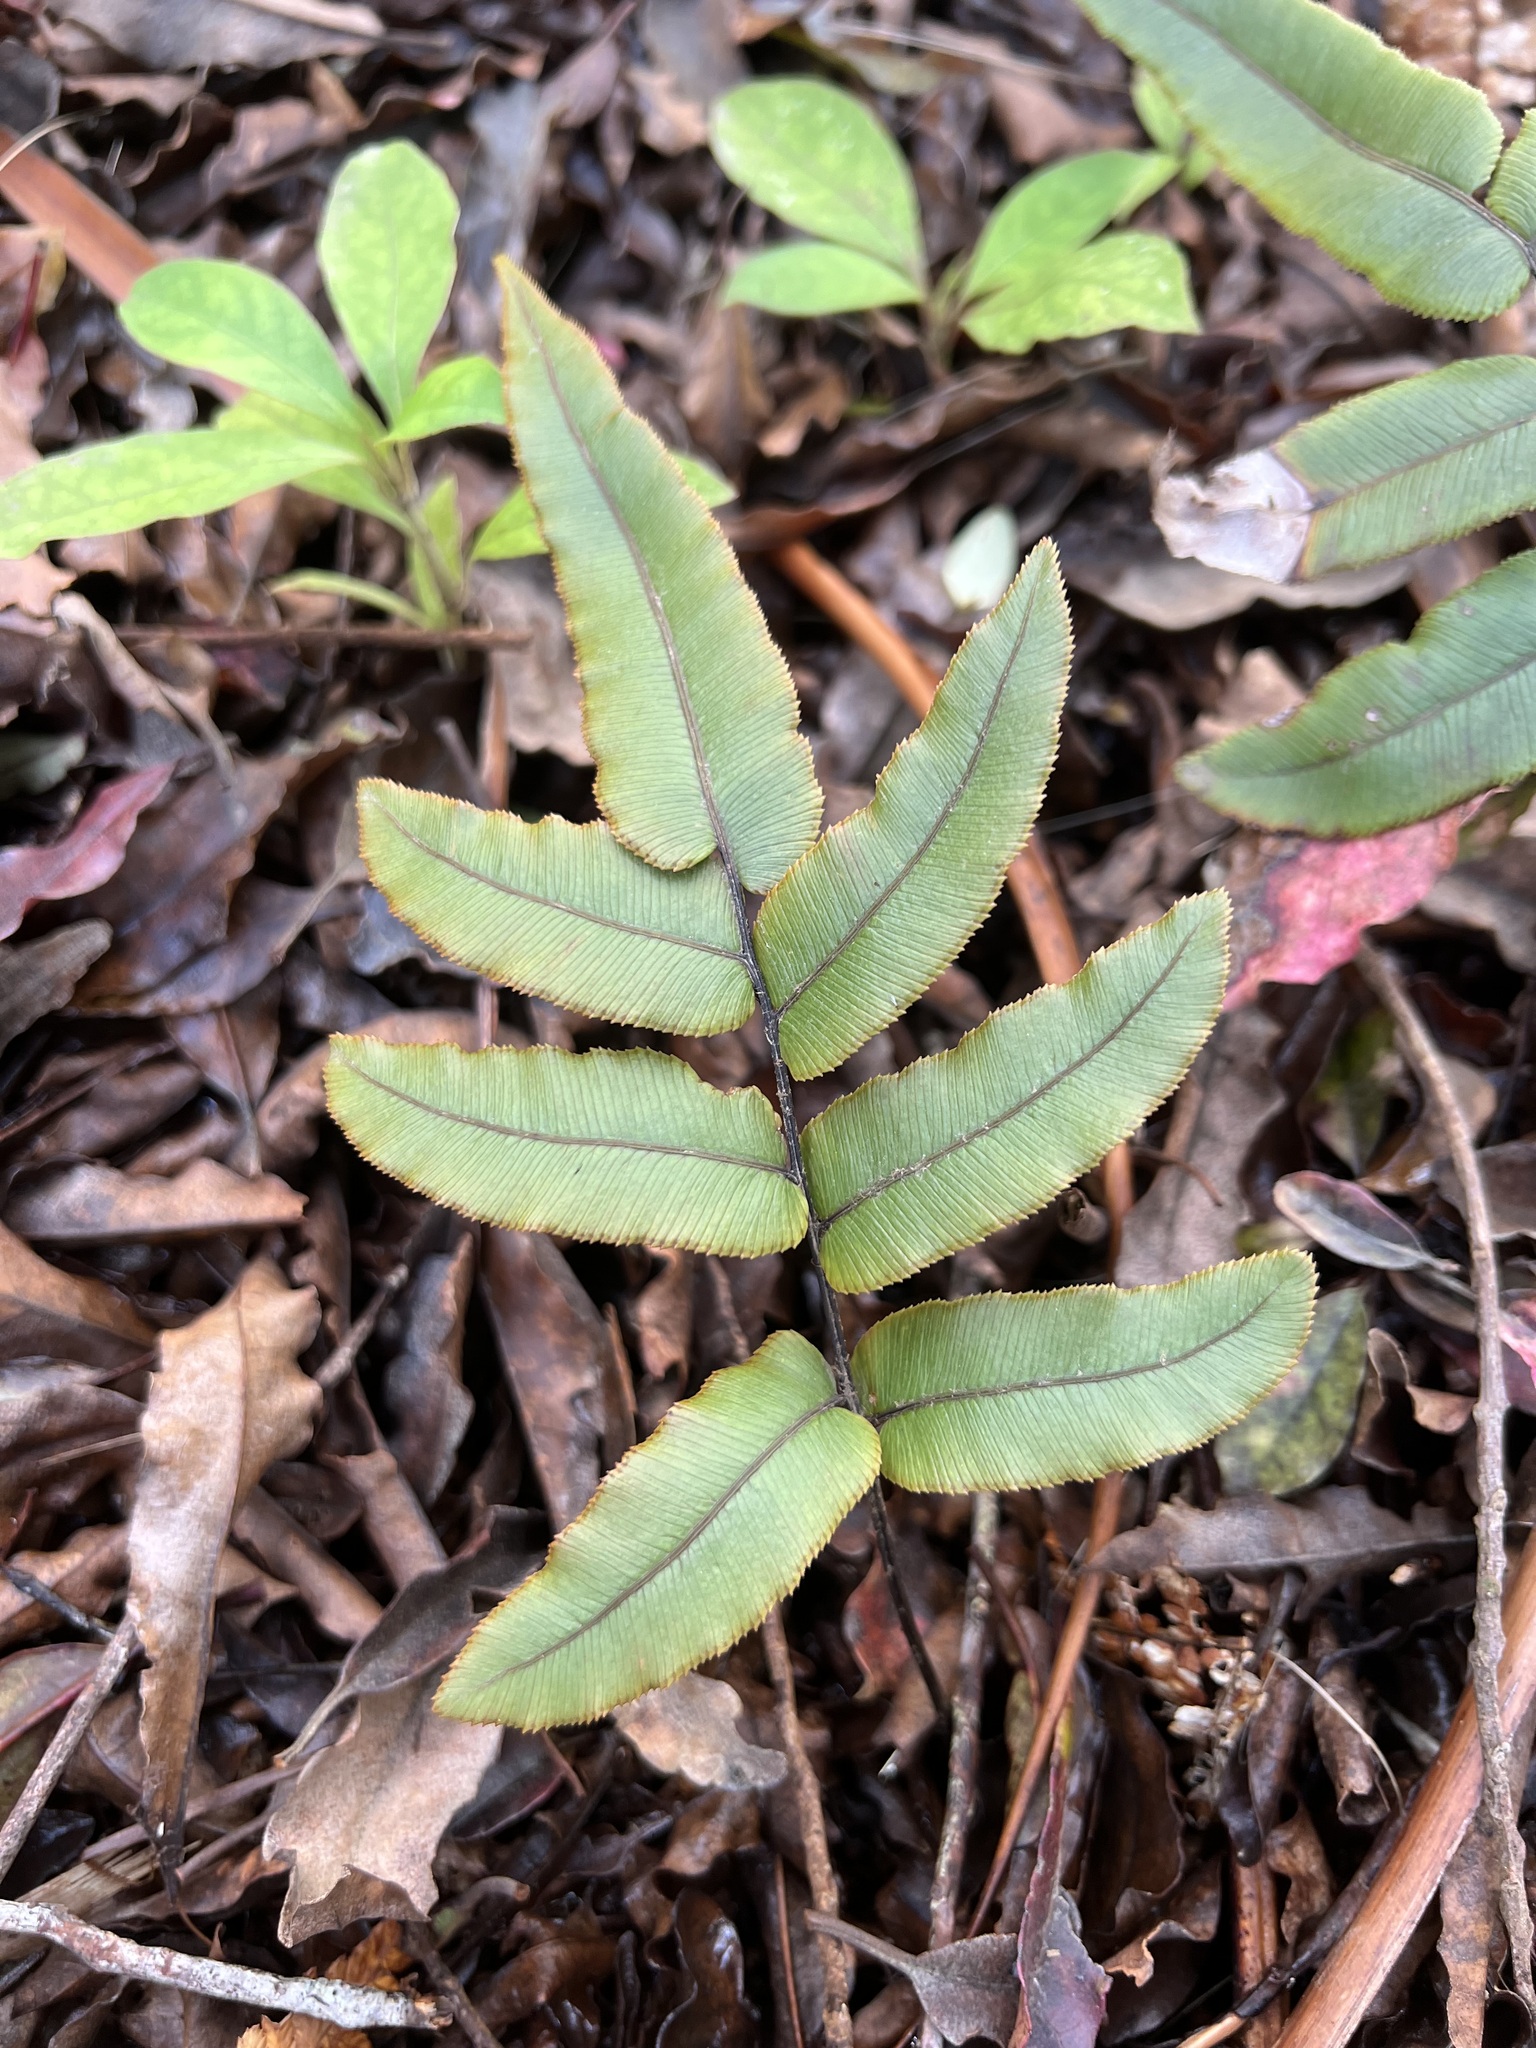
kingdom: Plantae
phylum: Tracheophyta
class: Polypodiopsida
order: Polypodiales
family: Blechnaceae
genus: Parablechnum
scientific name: Parablechnum procerum
